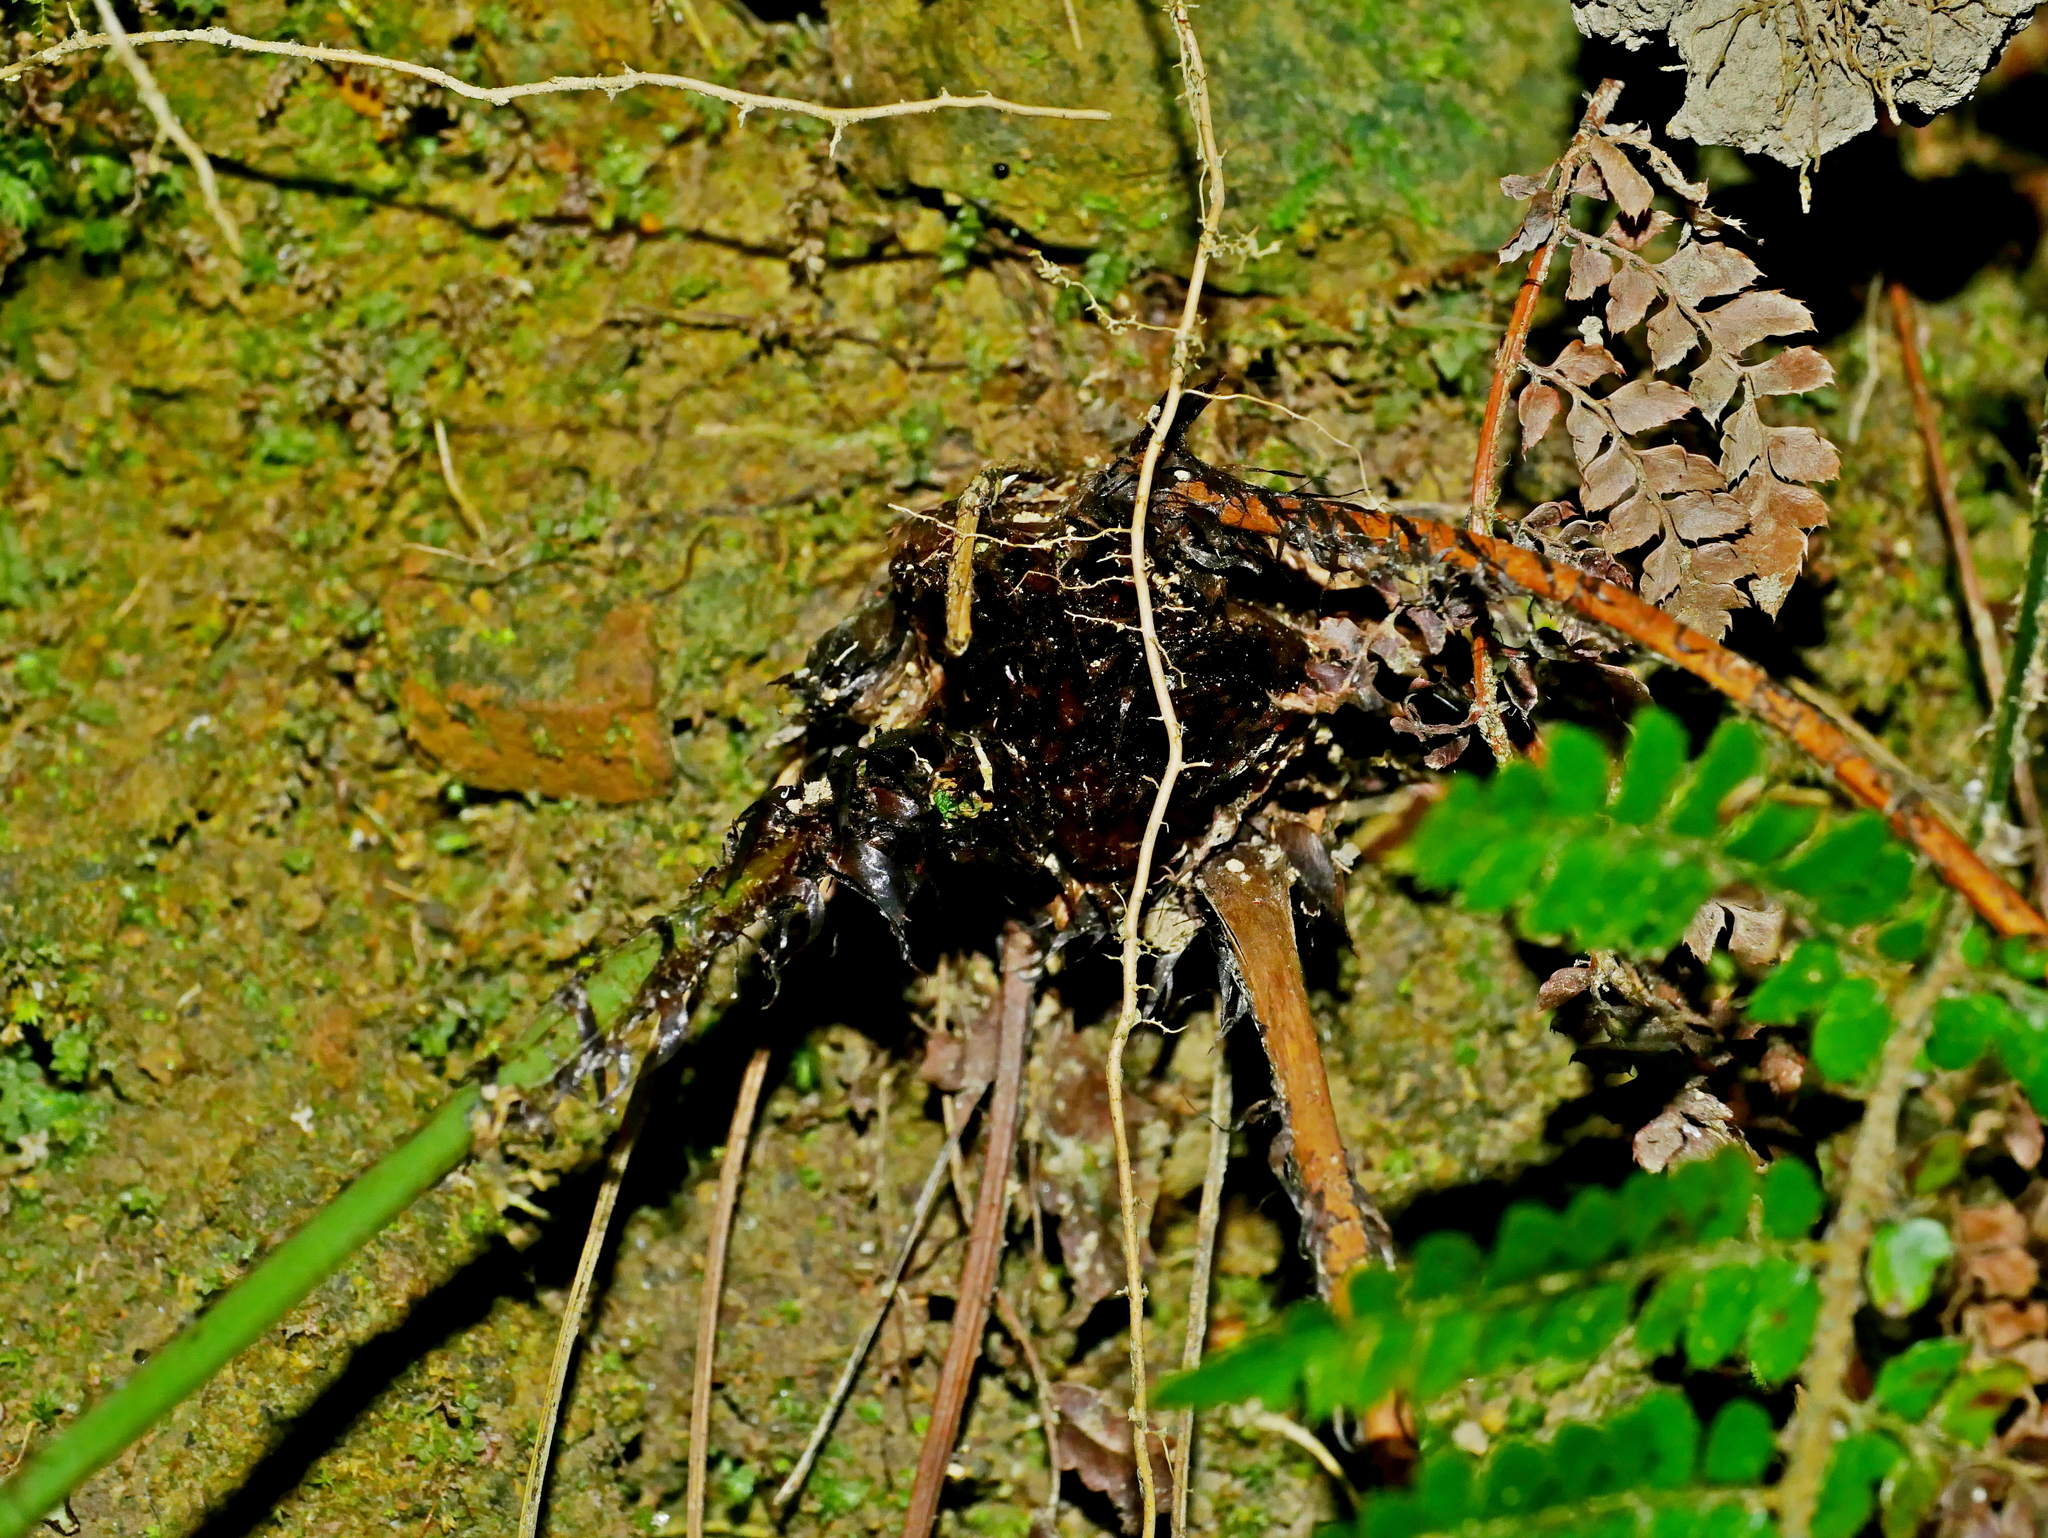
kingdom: Plantae
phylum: Tracheophyta
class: Polypodiopsida
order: Polypodiales
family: Dryopteridaceae
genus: Dryopteris
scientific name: Dryopteris cycadina
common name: Shaggy wood fern
